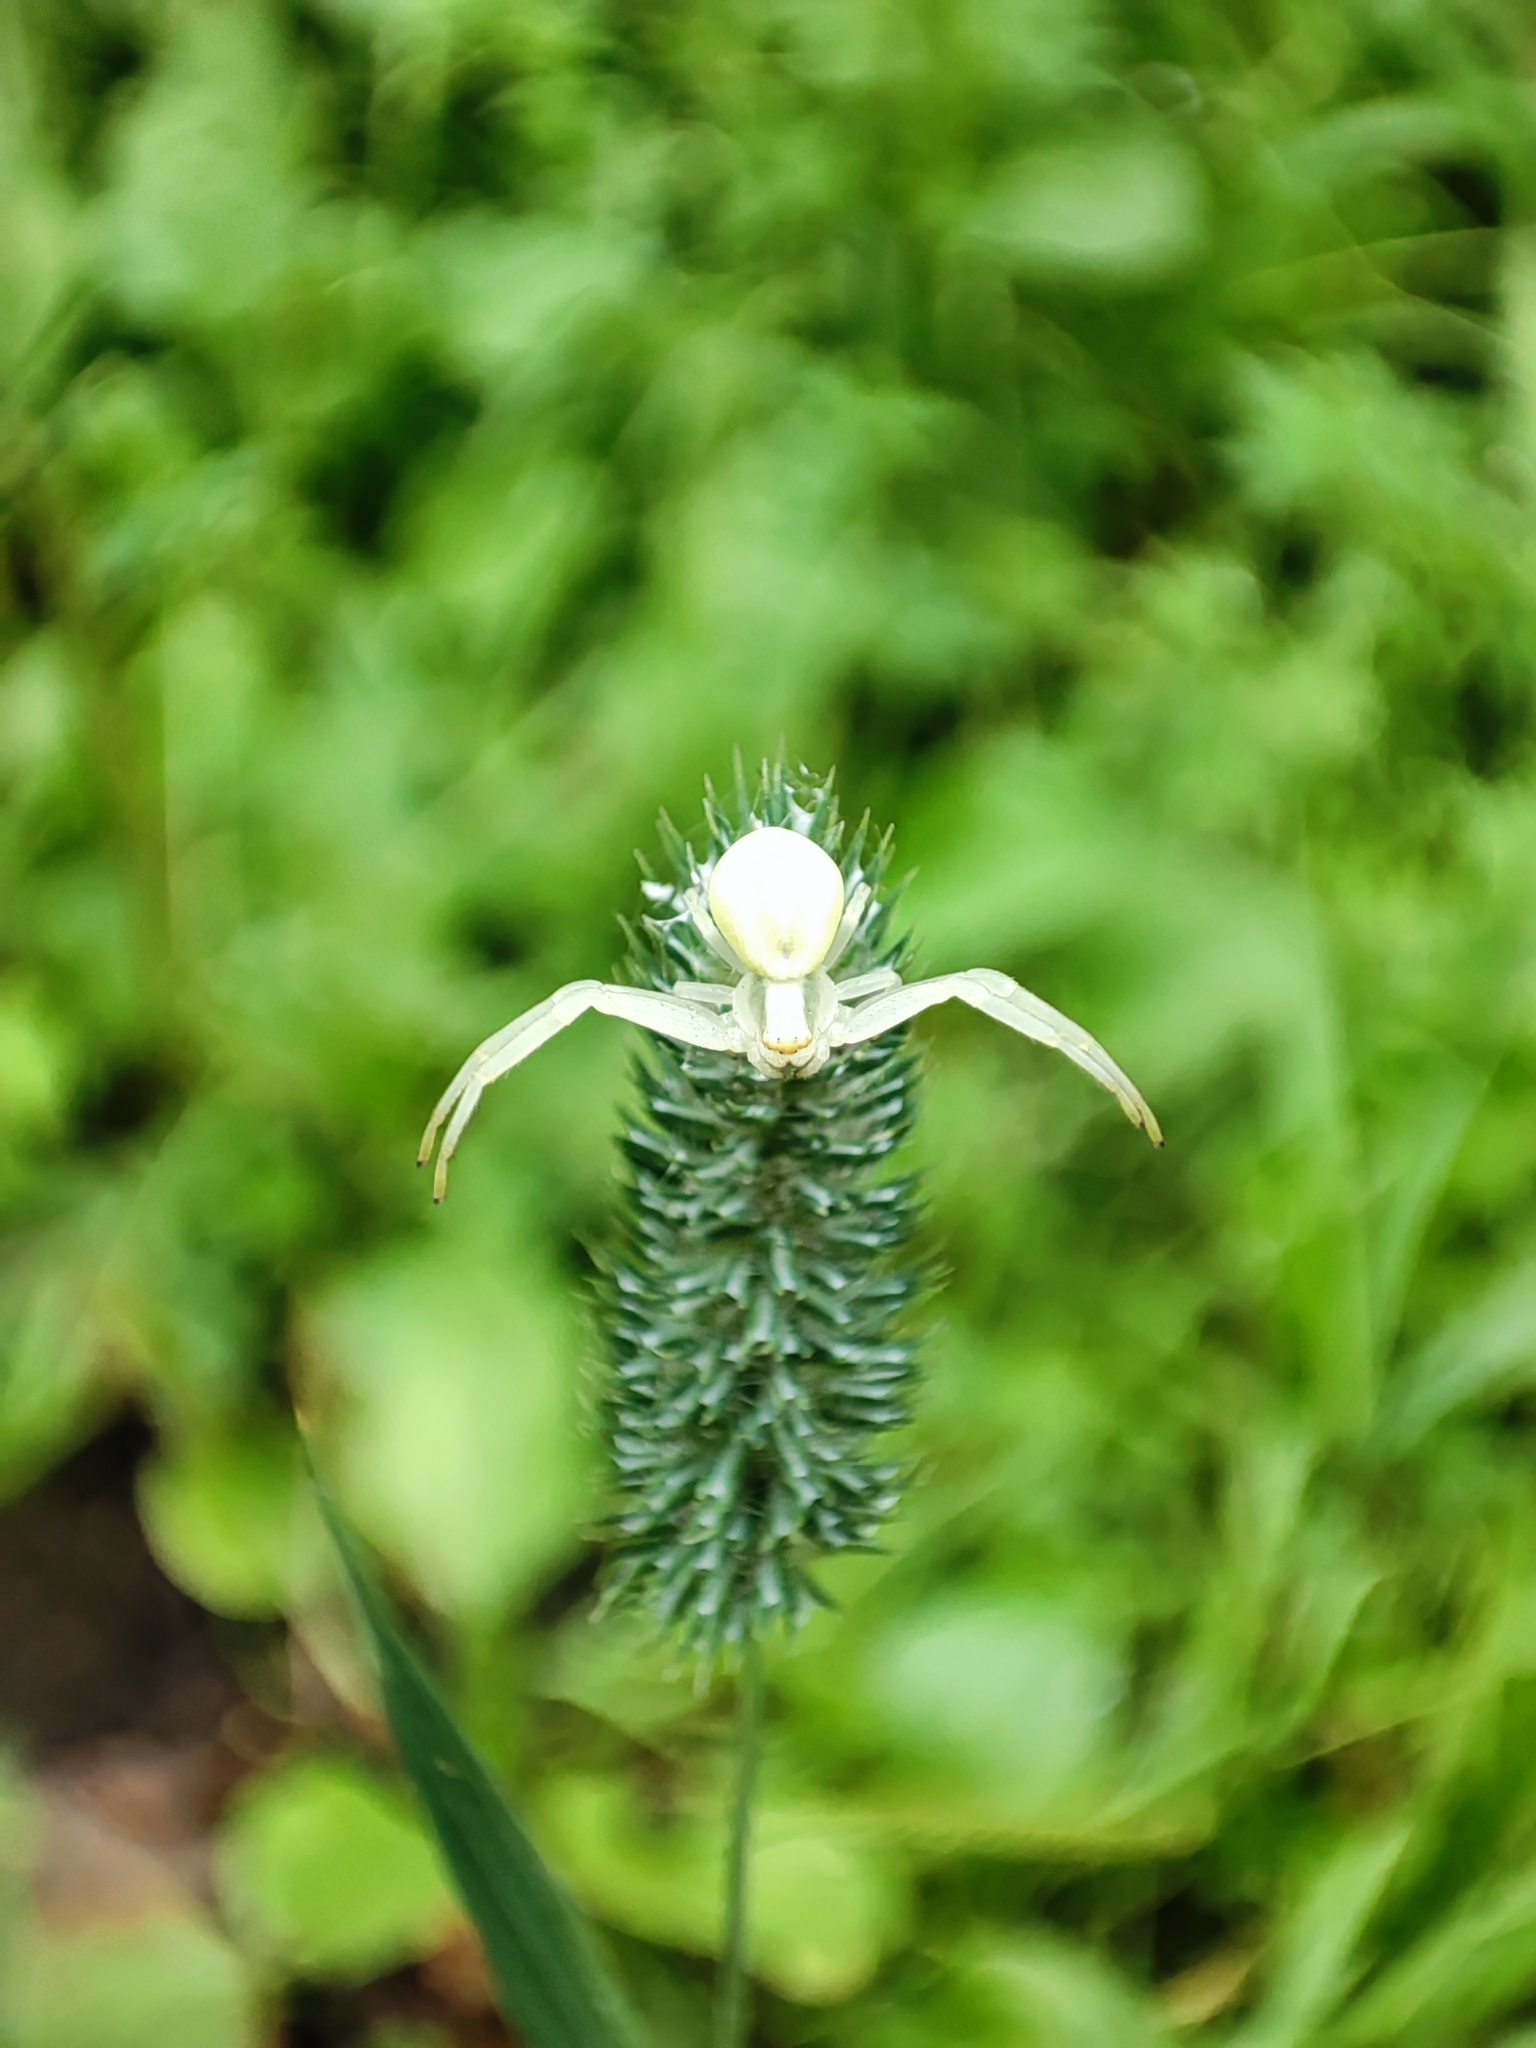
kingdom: Animalia
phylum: Arthropoda
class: Arachnida
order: Araneae
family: Thomisidae
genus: Misumena
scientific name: Misumena vatia
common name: Goldenrod crab spider
